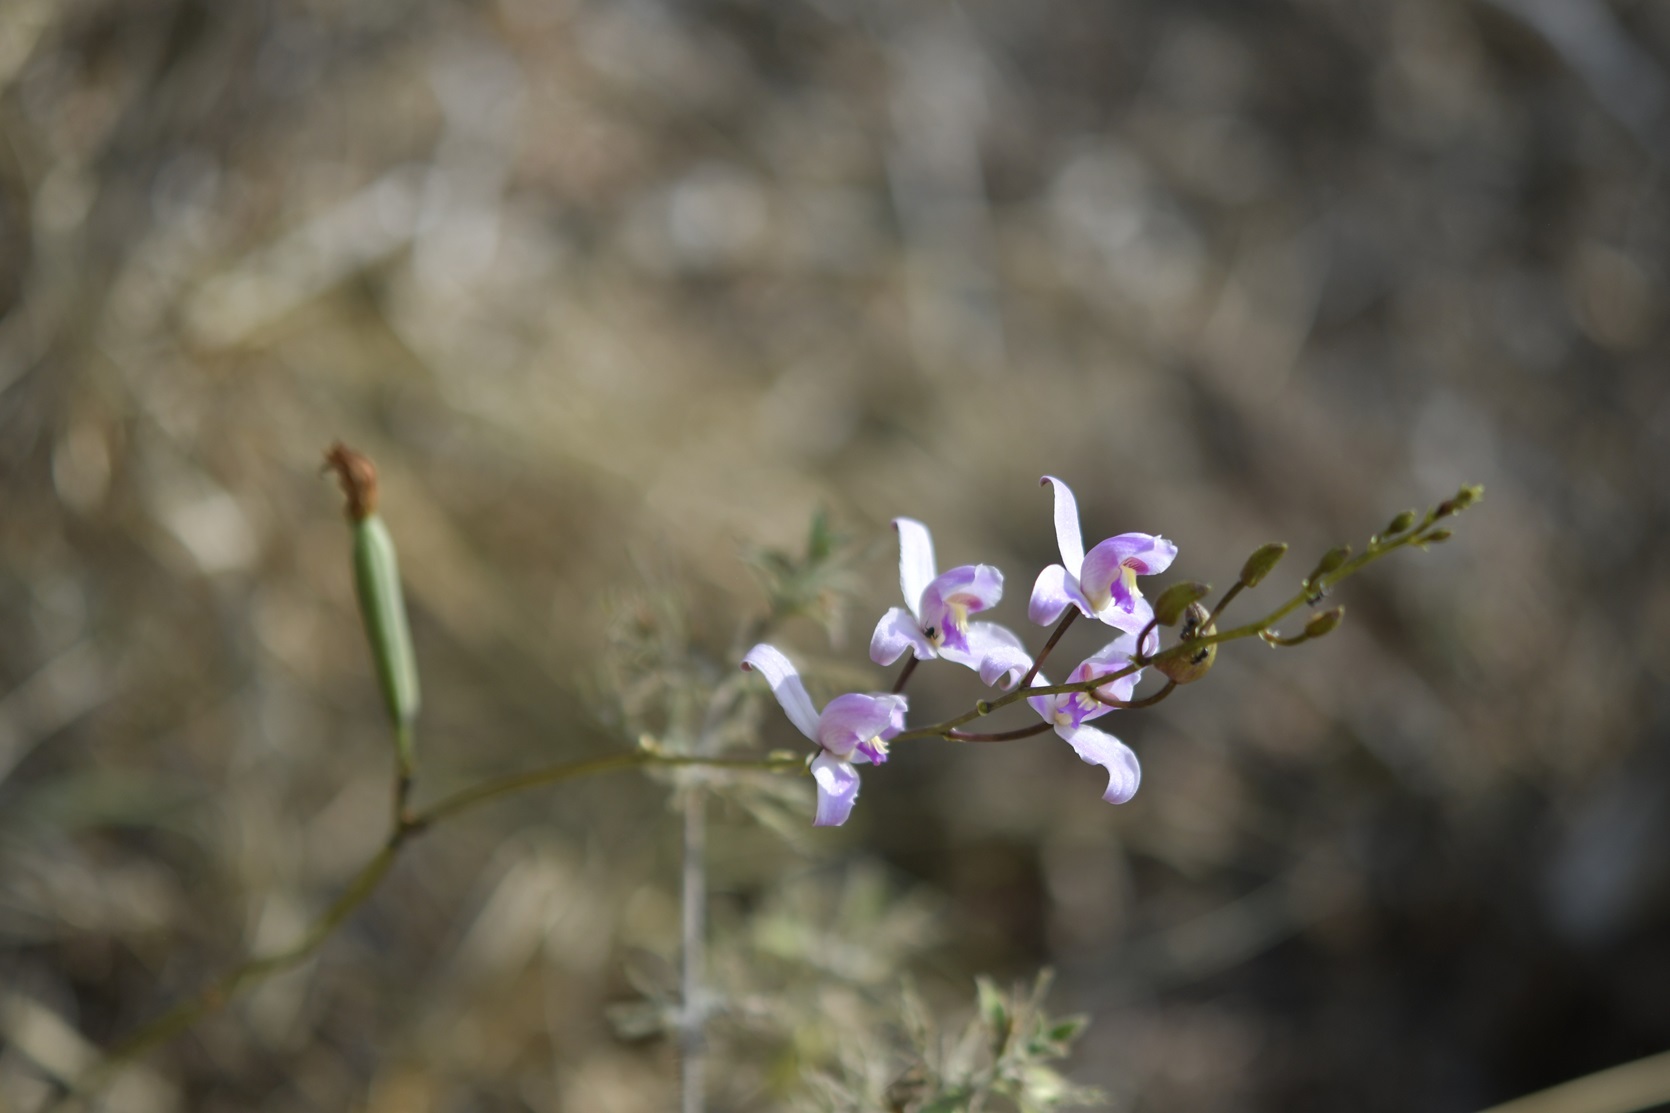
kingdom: Plantae
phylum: Tracheophyta
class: Liliopsida
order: Asparagales
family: Orchidaceae
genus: Bletia
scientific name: Bletia purpurea
